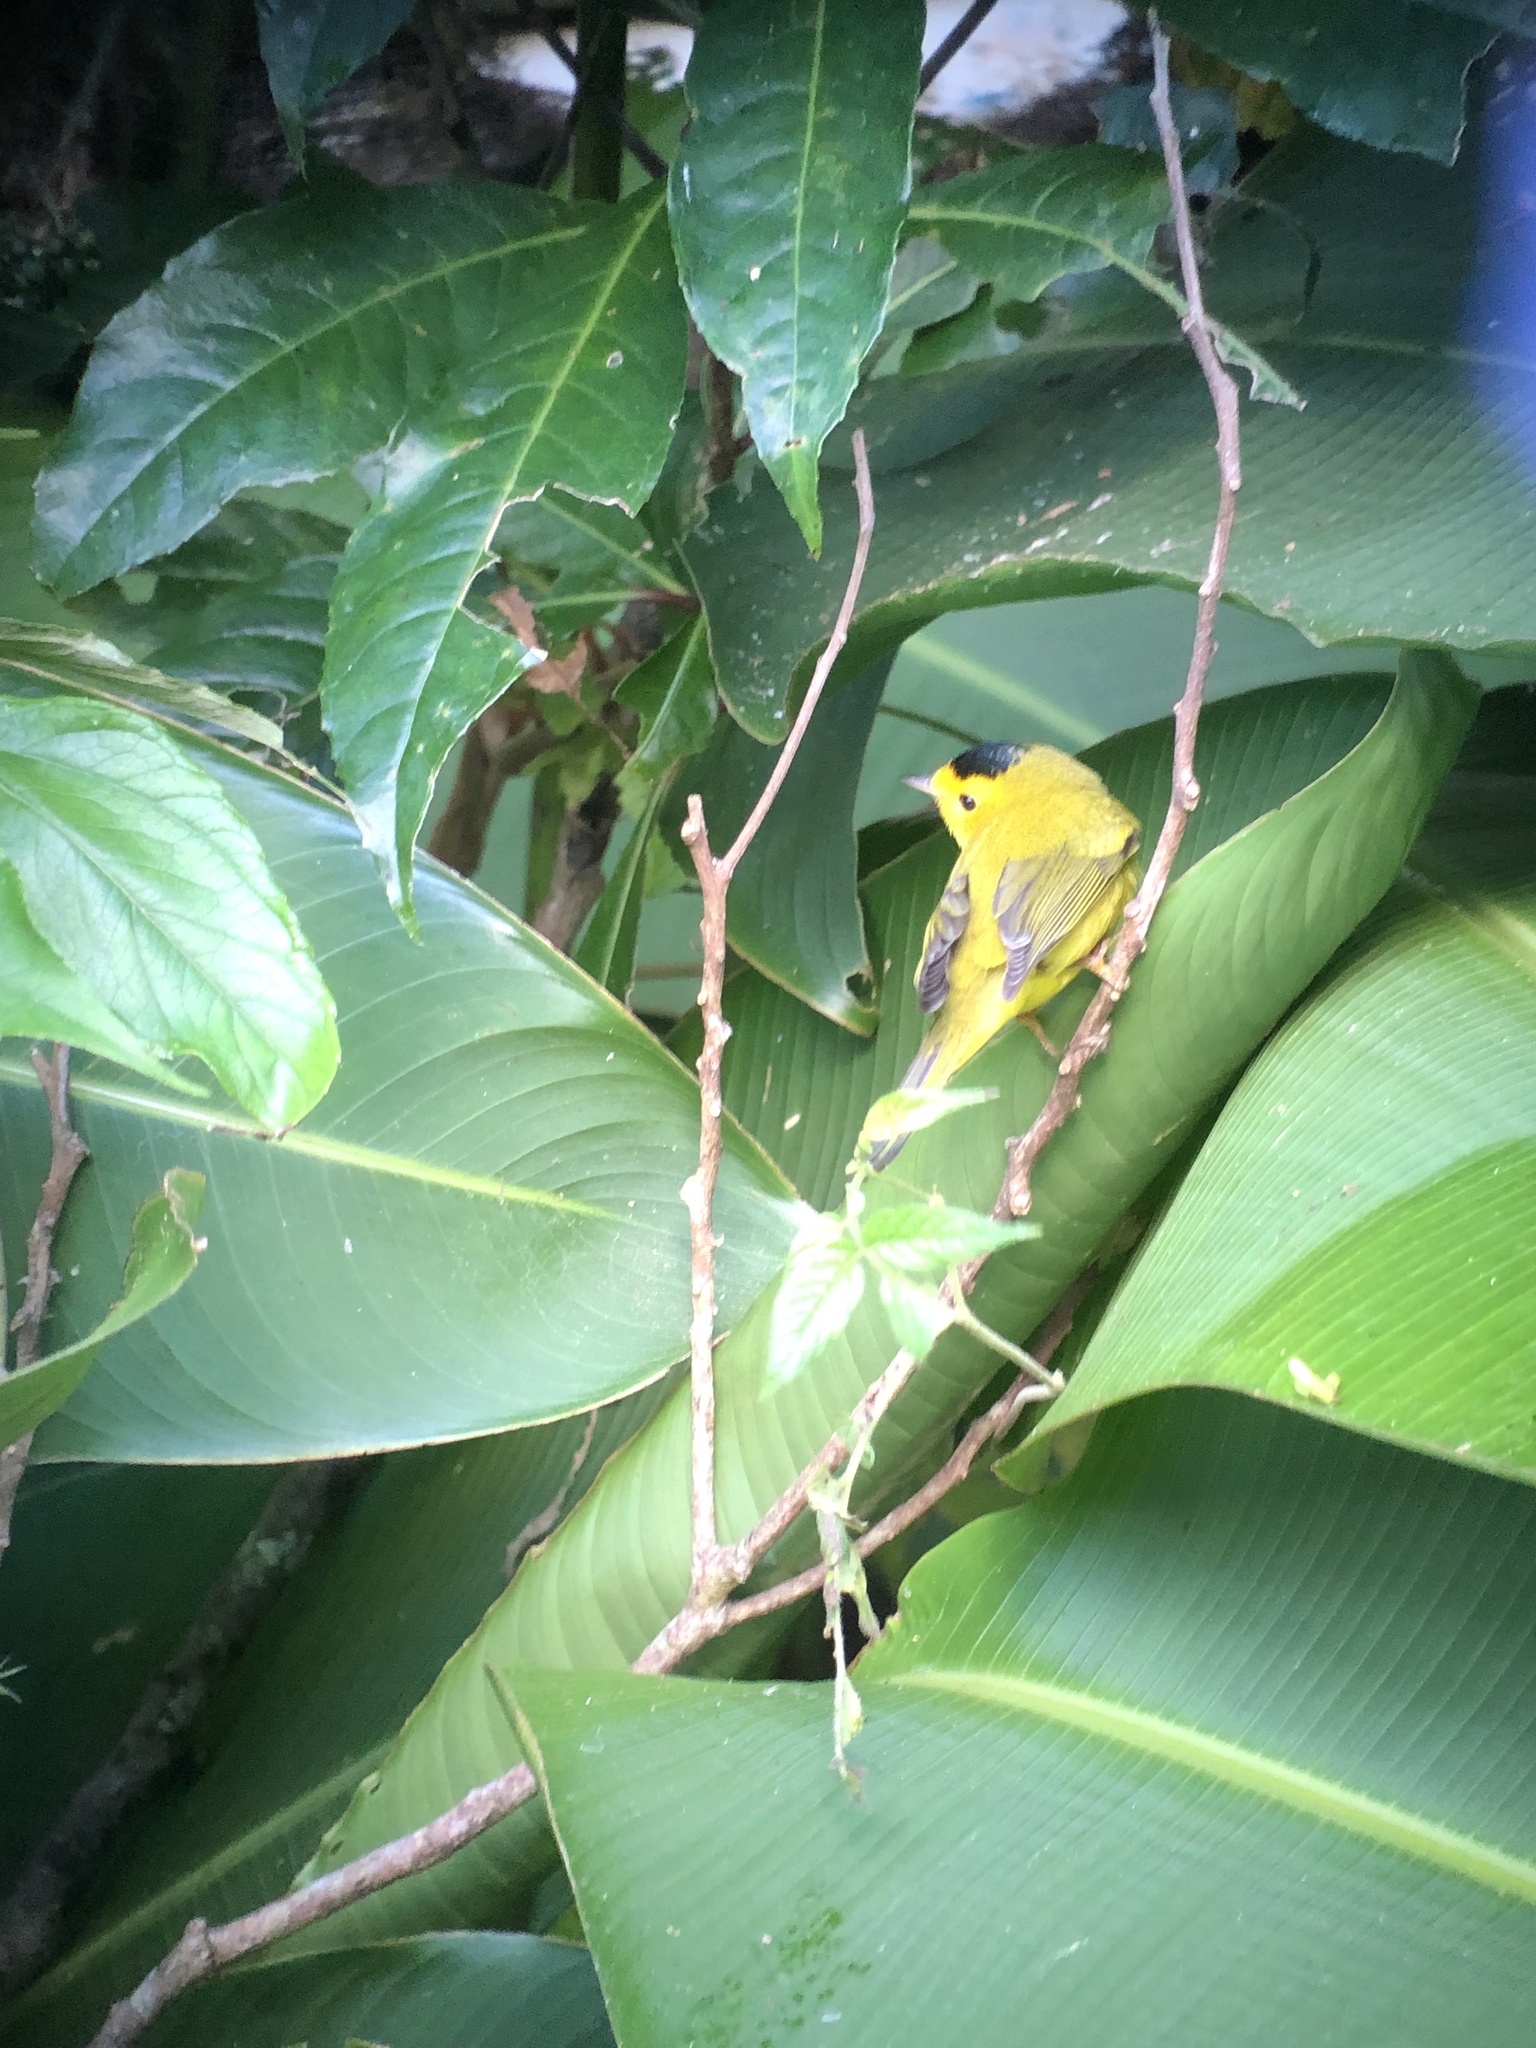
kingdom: Animalia
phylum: Chordata
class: Aves
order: Passeriformes
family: Parulidae
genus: Cardellina
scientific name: Cardellina pusilla
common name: Wilson's warbler
